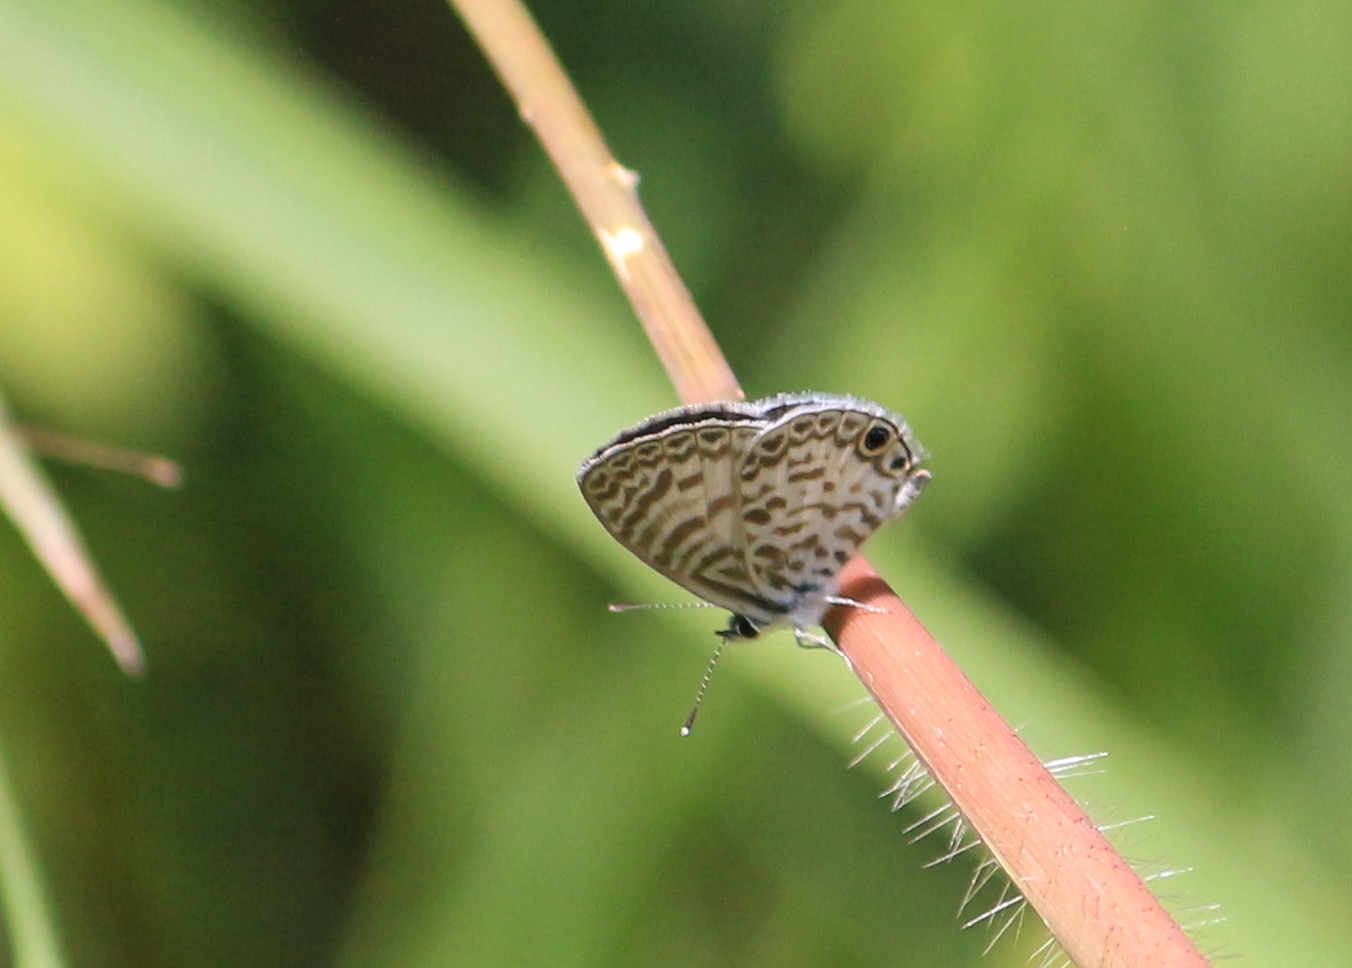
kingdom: Animalia
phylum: Arthropoda
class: Insecta
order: Lepidoptera
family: Lycaenidae
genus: Leptotes
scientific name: Leptotes theonus
